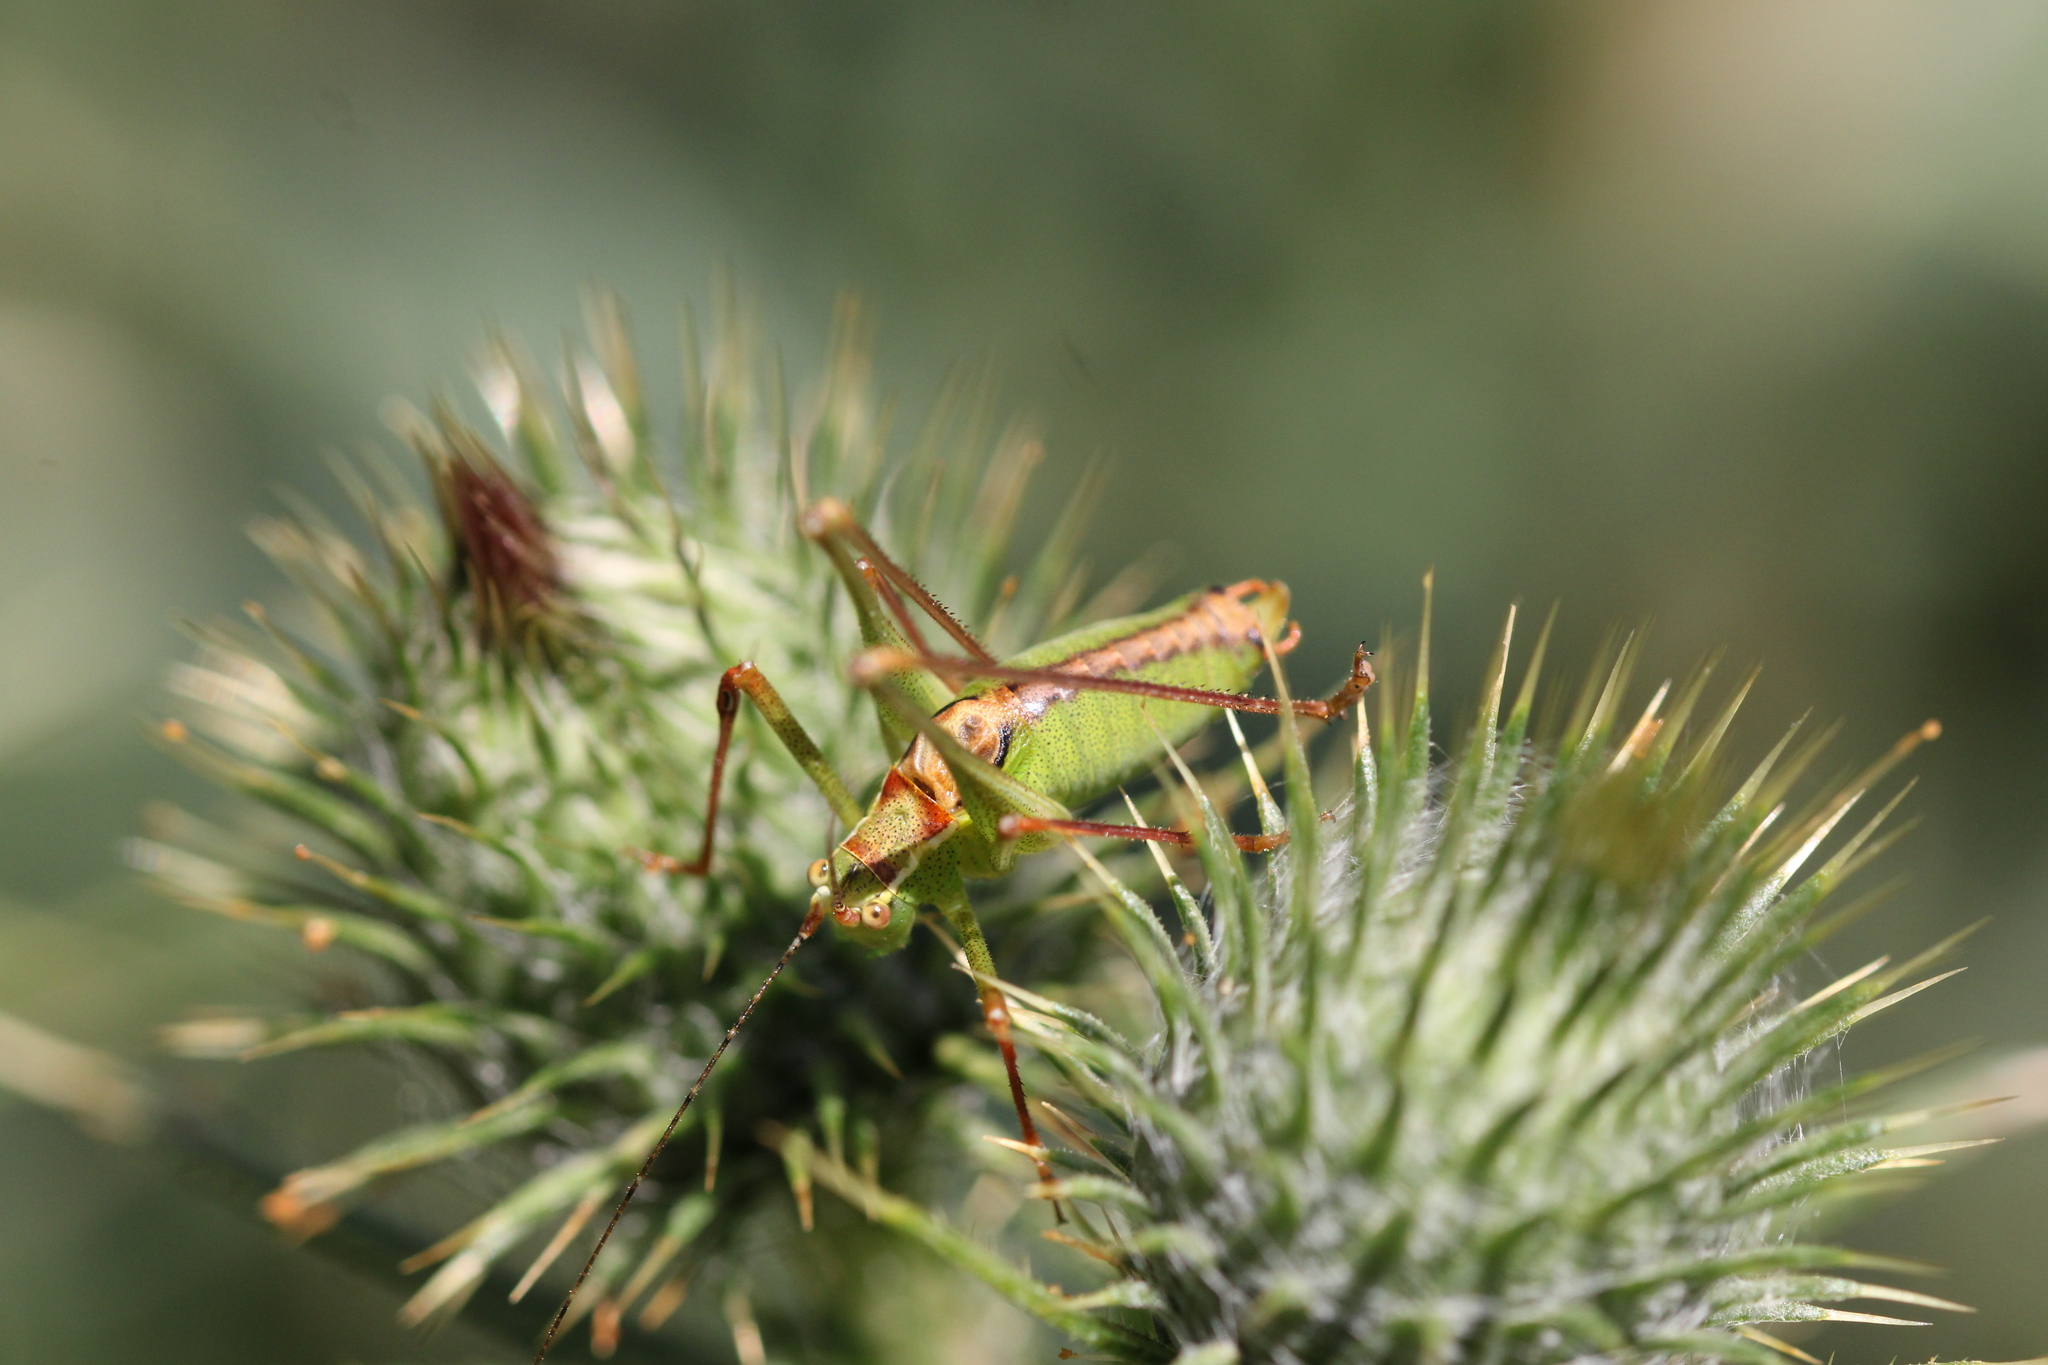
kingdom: Animalia
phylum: Arthropoda
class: Insecta
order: Orthoptera
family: Tettigoniidae
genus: Leptophyes
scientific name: Leptophyes punctatissima
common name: Speckled bush-cricket
